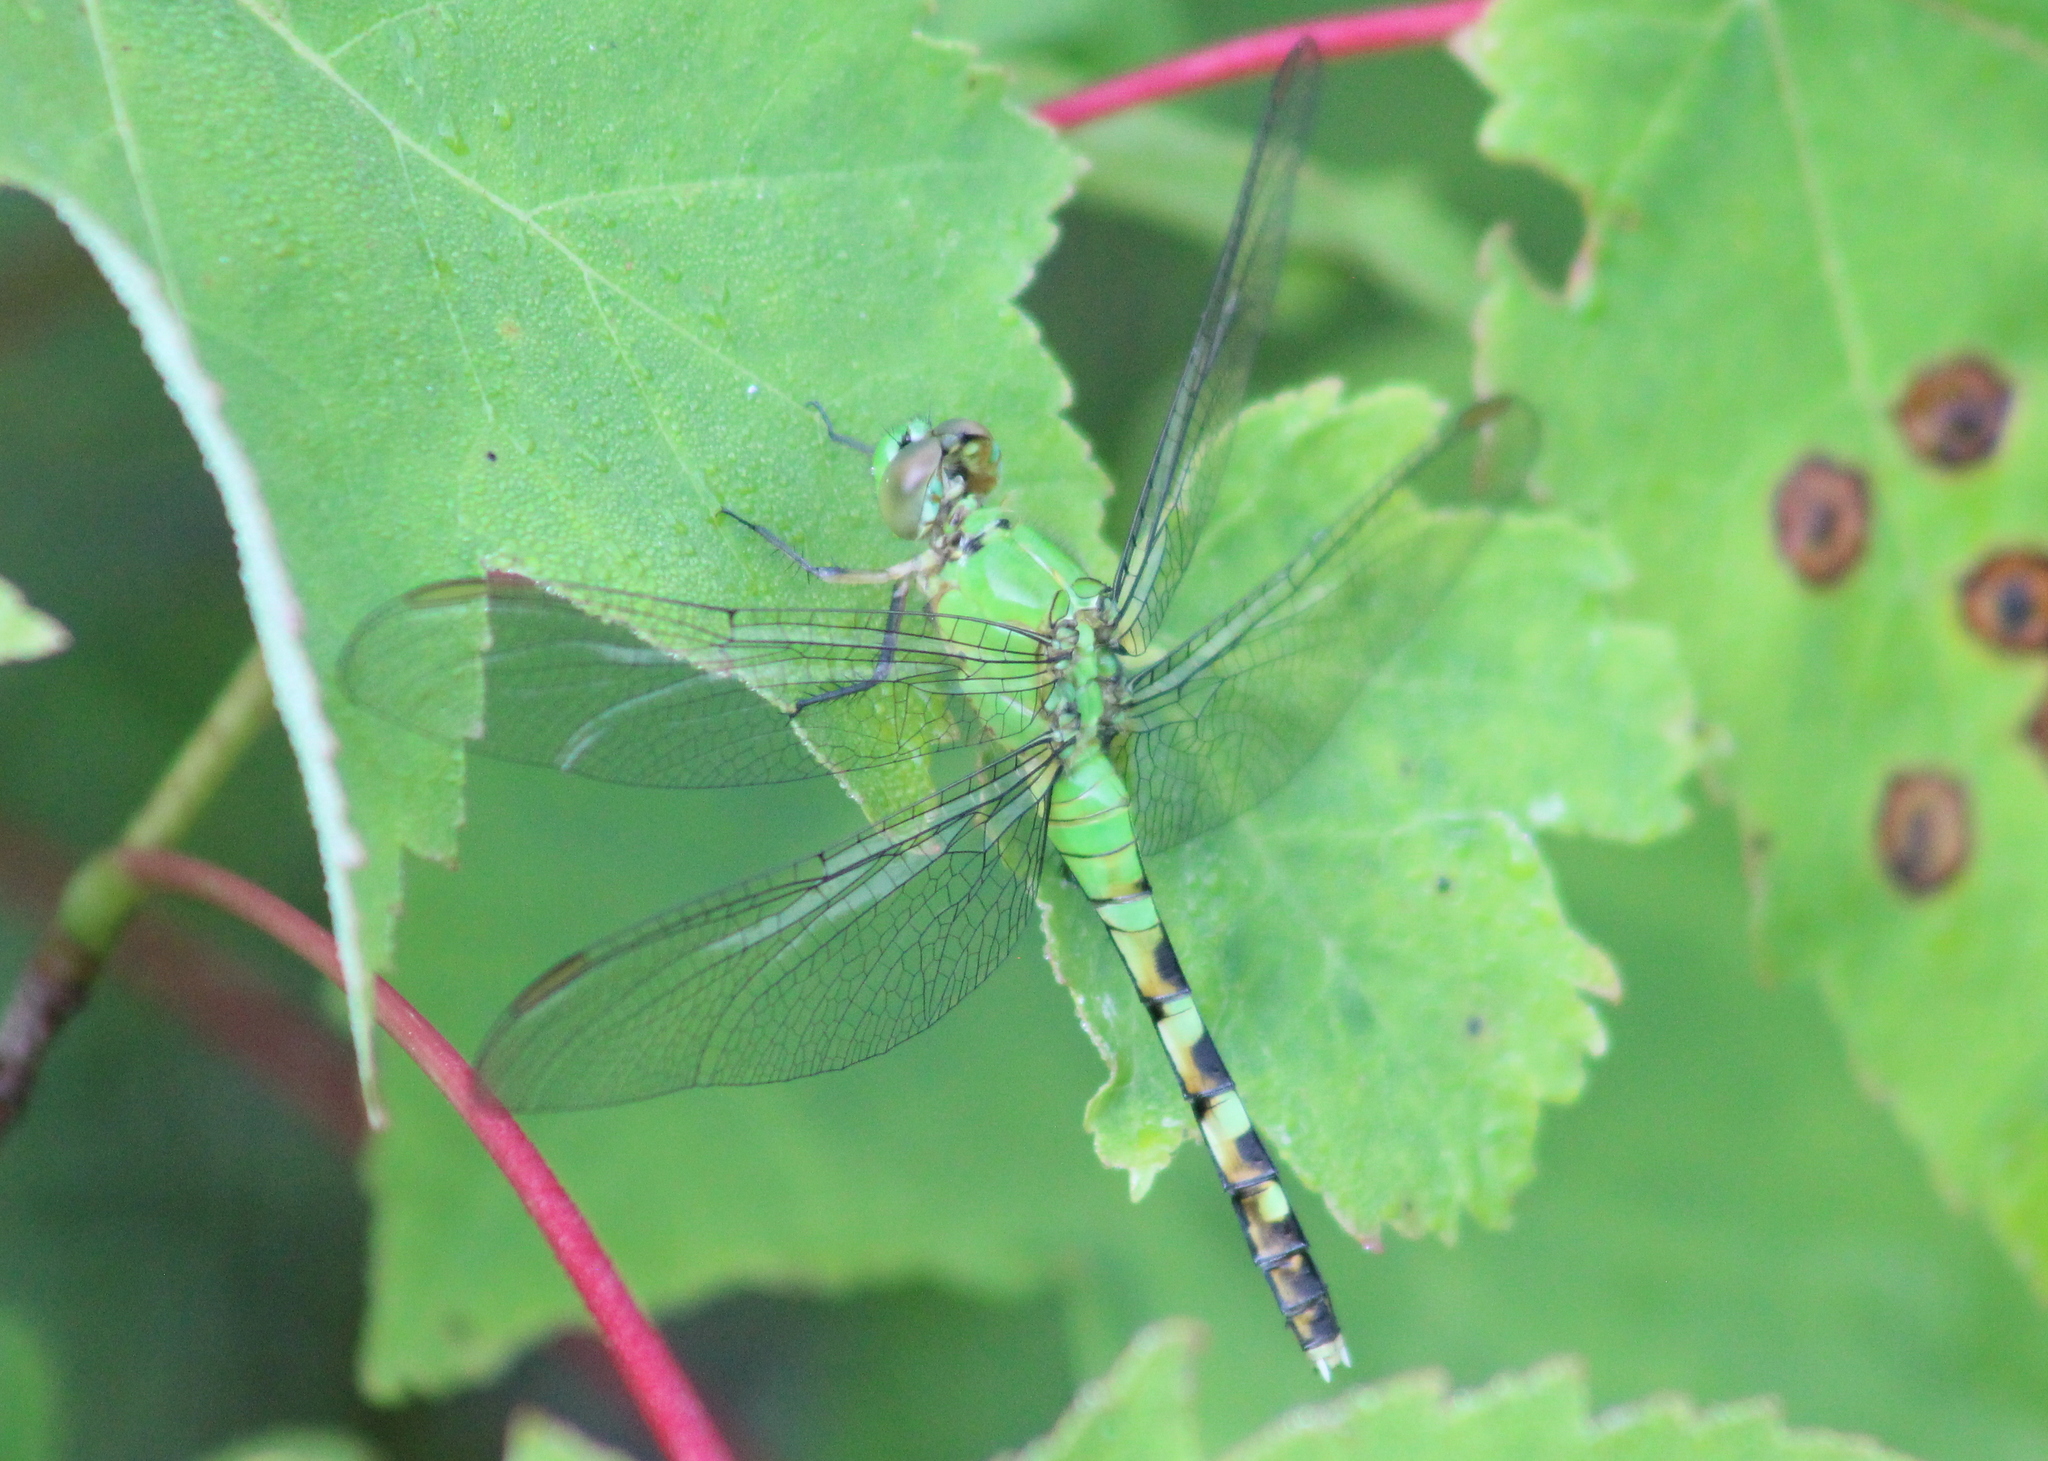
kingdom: Animalia
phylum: Arthropoda
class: Insecta
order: Odonata
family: Libellulidae
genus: Erythemis
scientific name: Erythemis simplicicollis
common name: Eastern pondhawk
